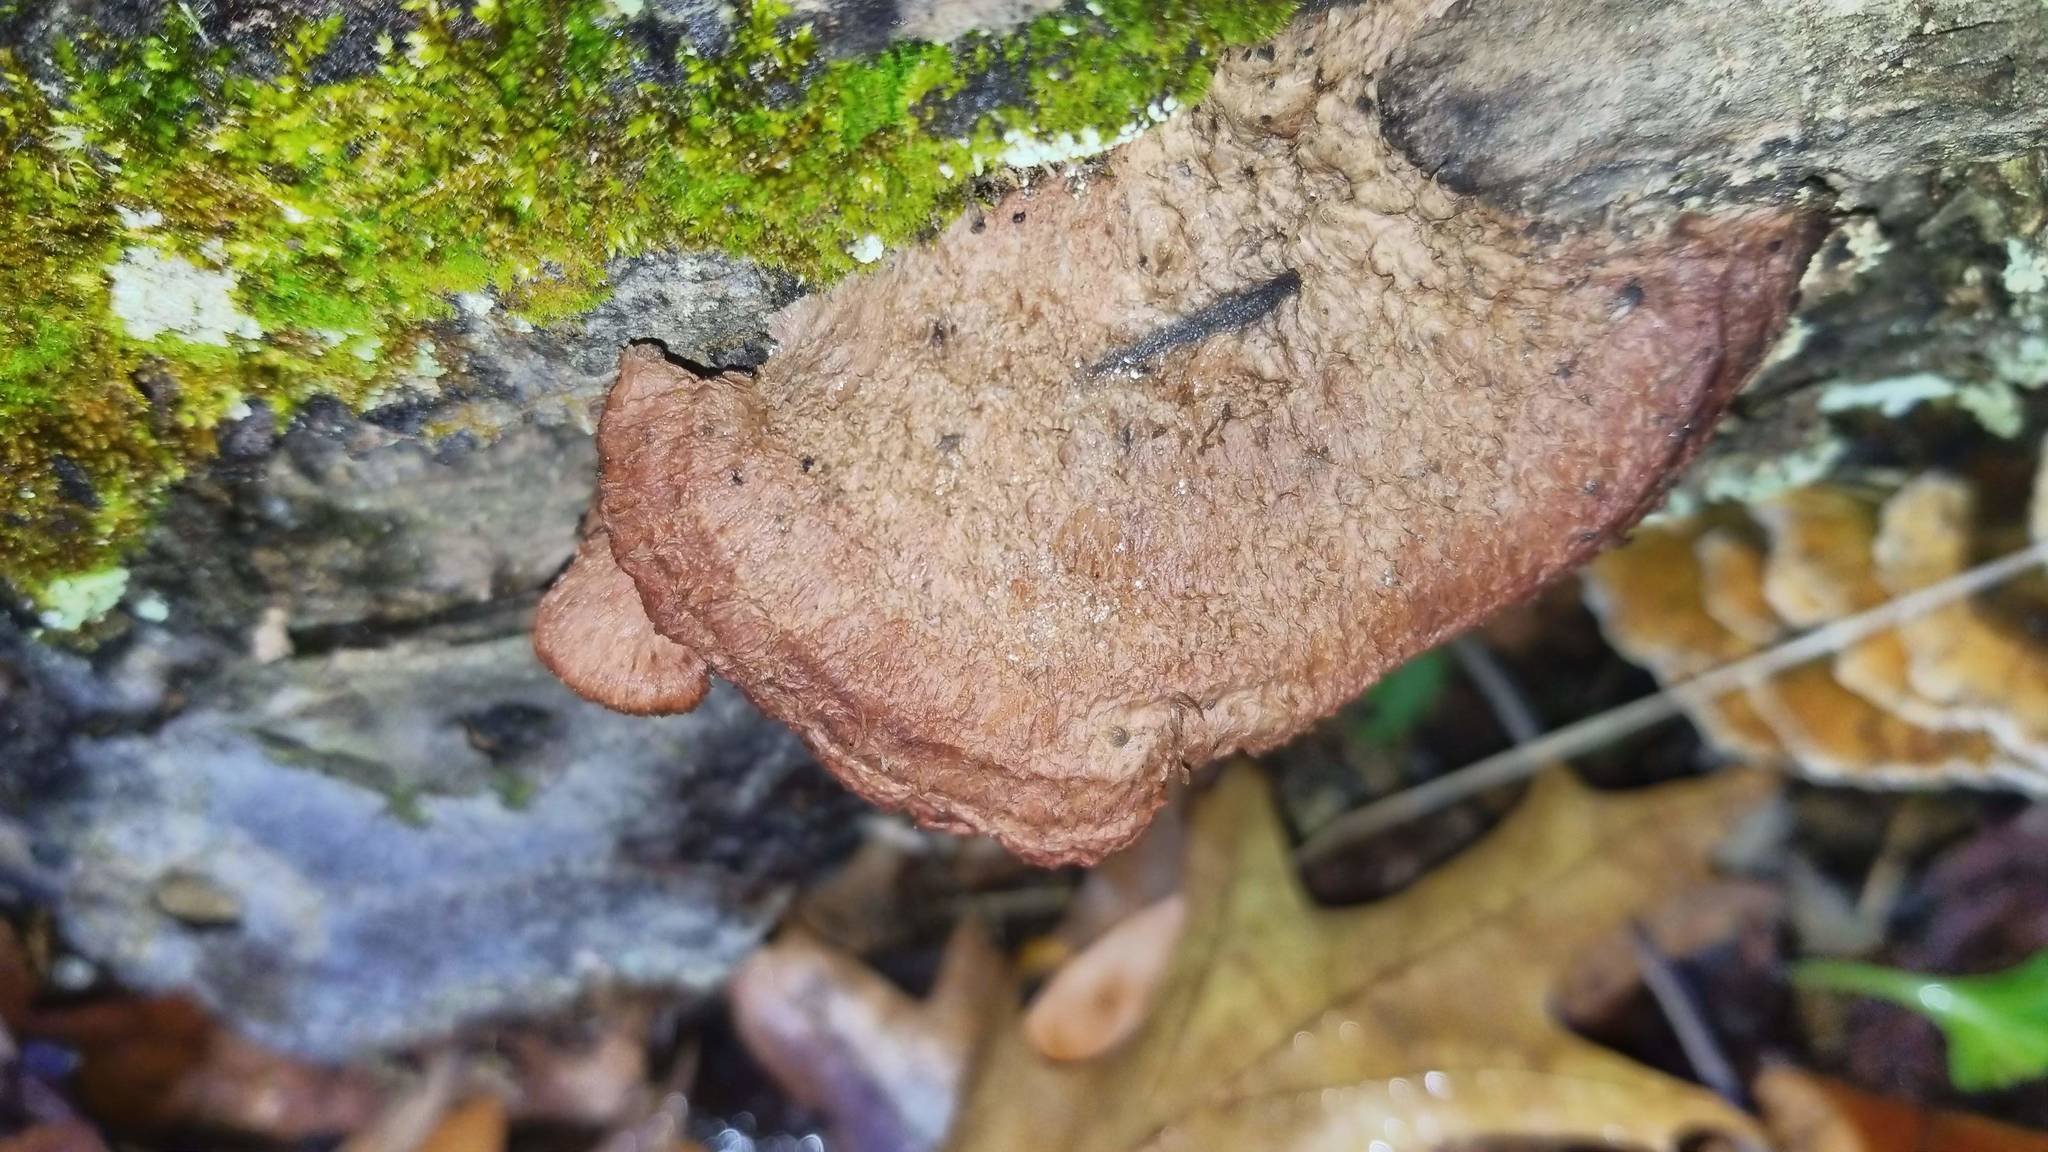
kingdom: Fungi
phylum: Basidiomycota
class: Agaricomycetes
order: Hymenochaetales
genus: Trichaptum
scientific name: Trichaptum biforme
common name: Violet-toothed polypore
